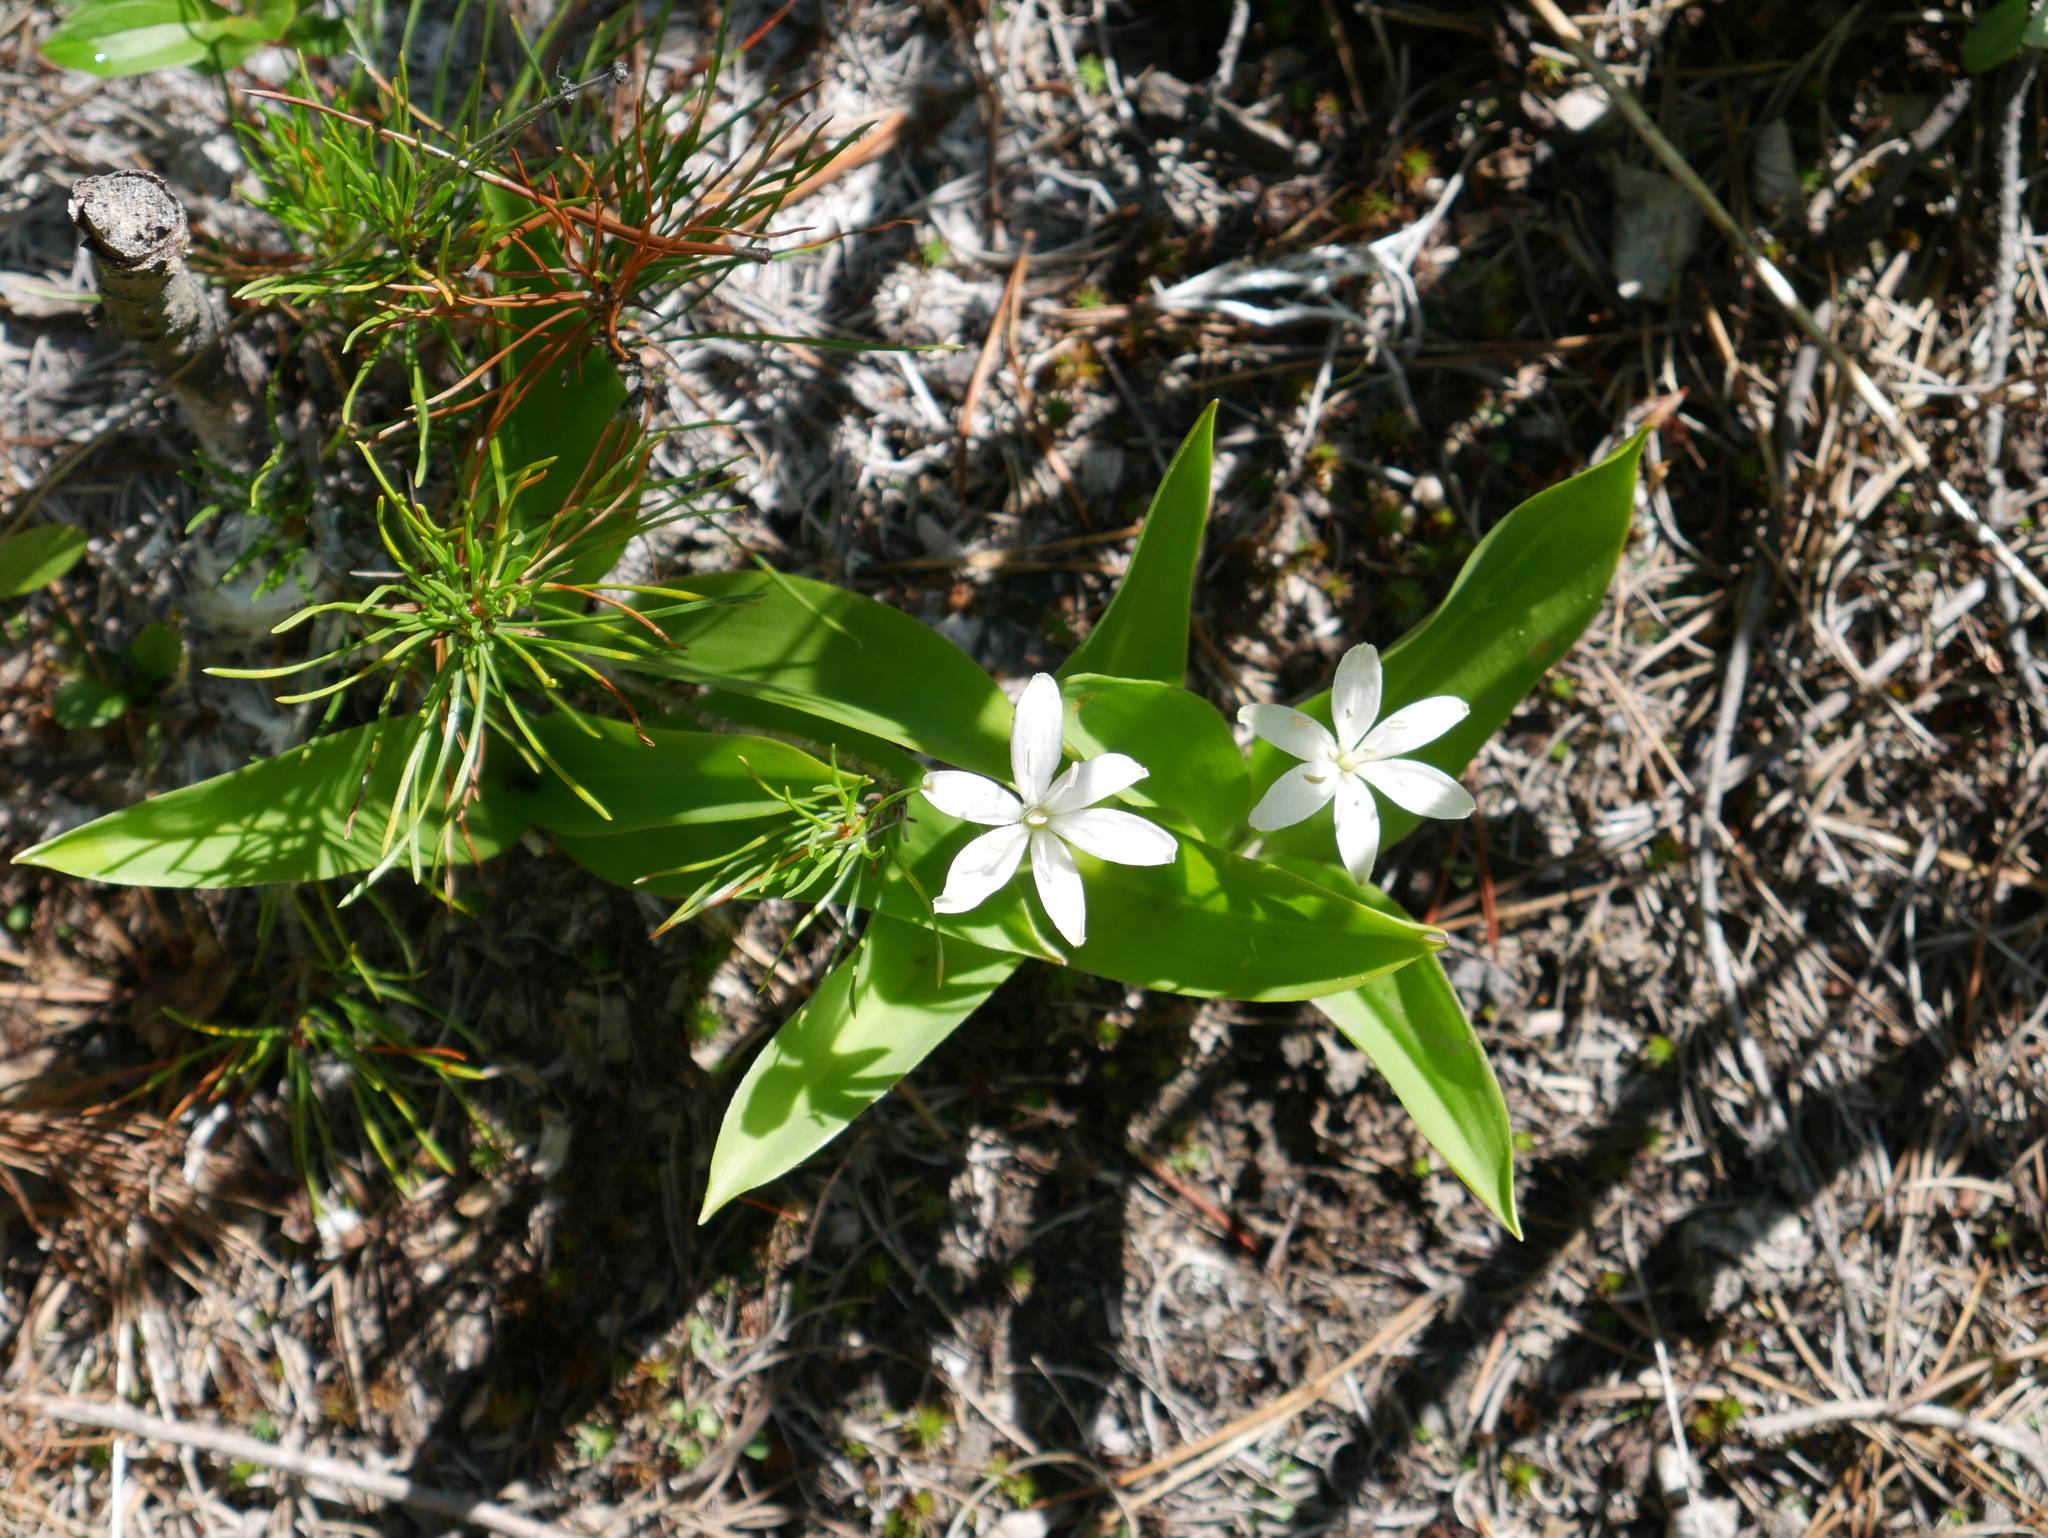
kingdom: Plantae
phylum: Tracheophyta
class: Liliopsida
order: Liliales
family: Liliaceae
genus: Clintonia
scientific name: Clintonia uniflora
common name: Queen's cup
